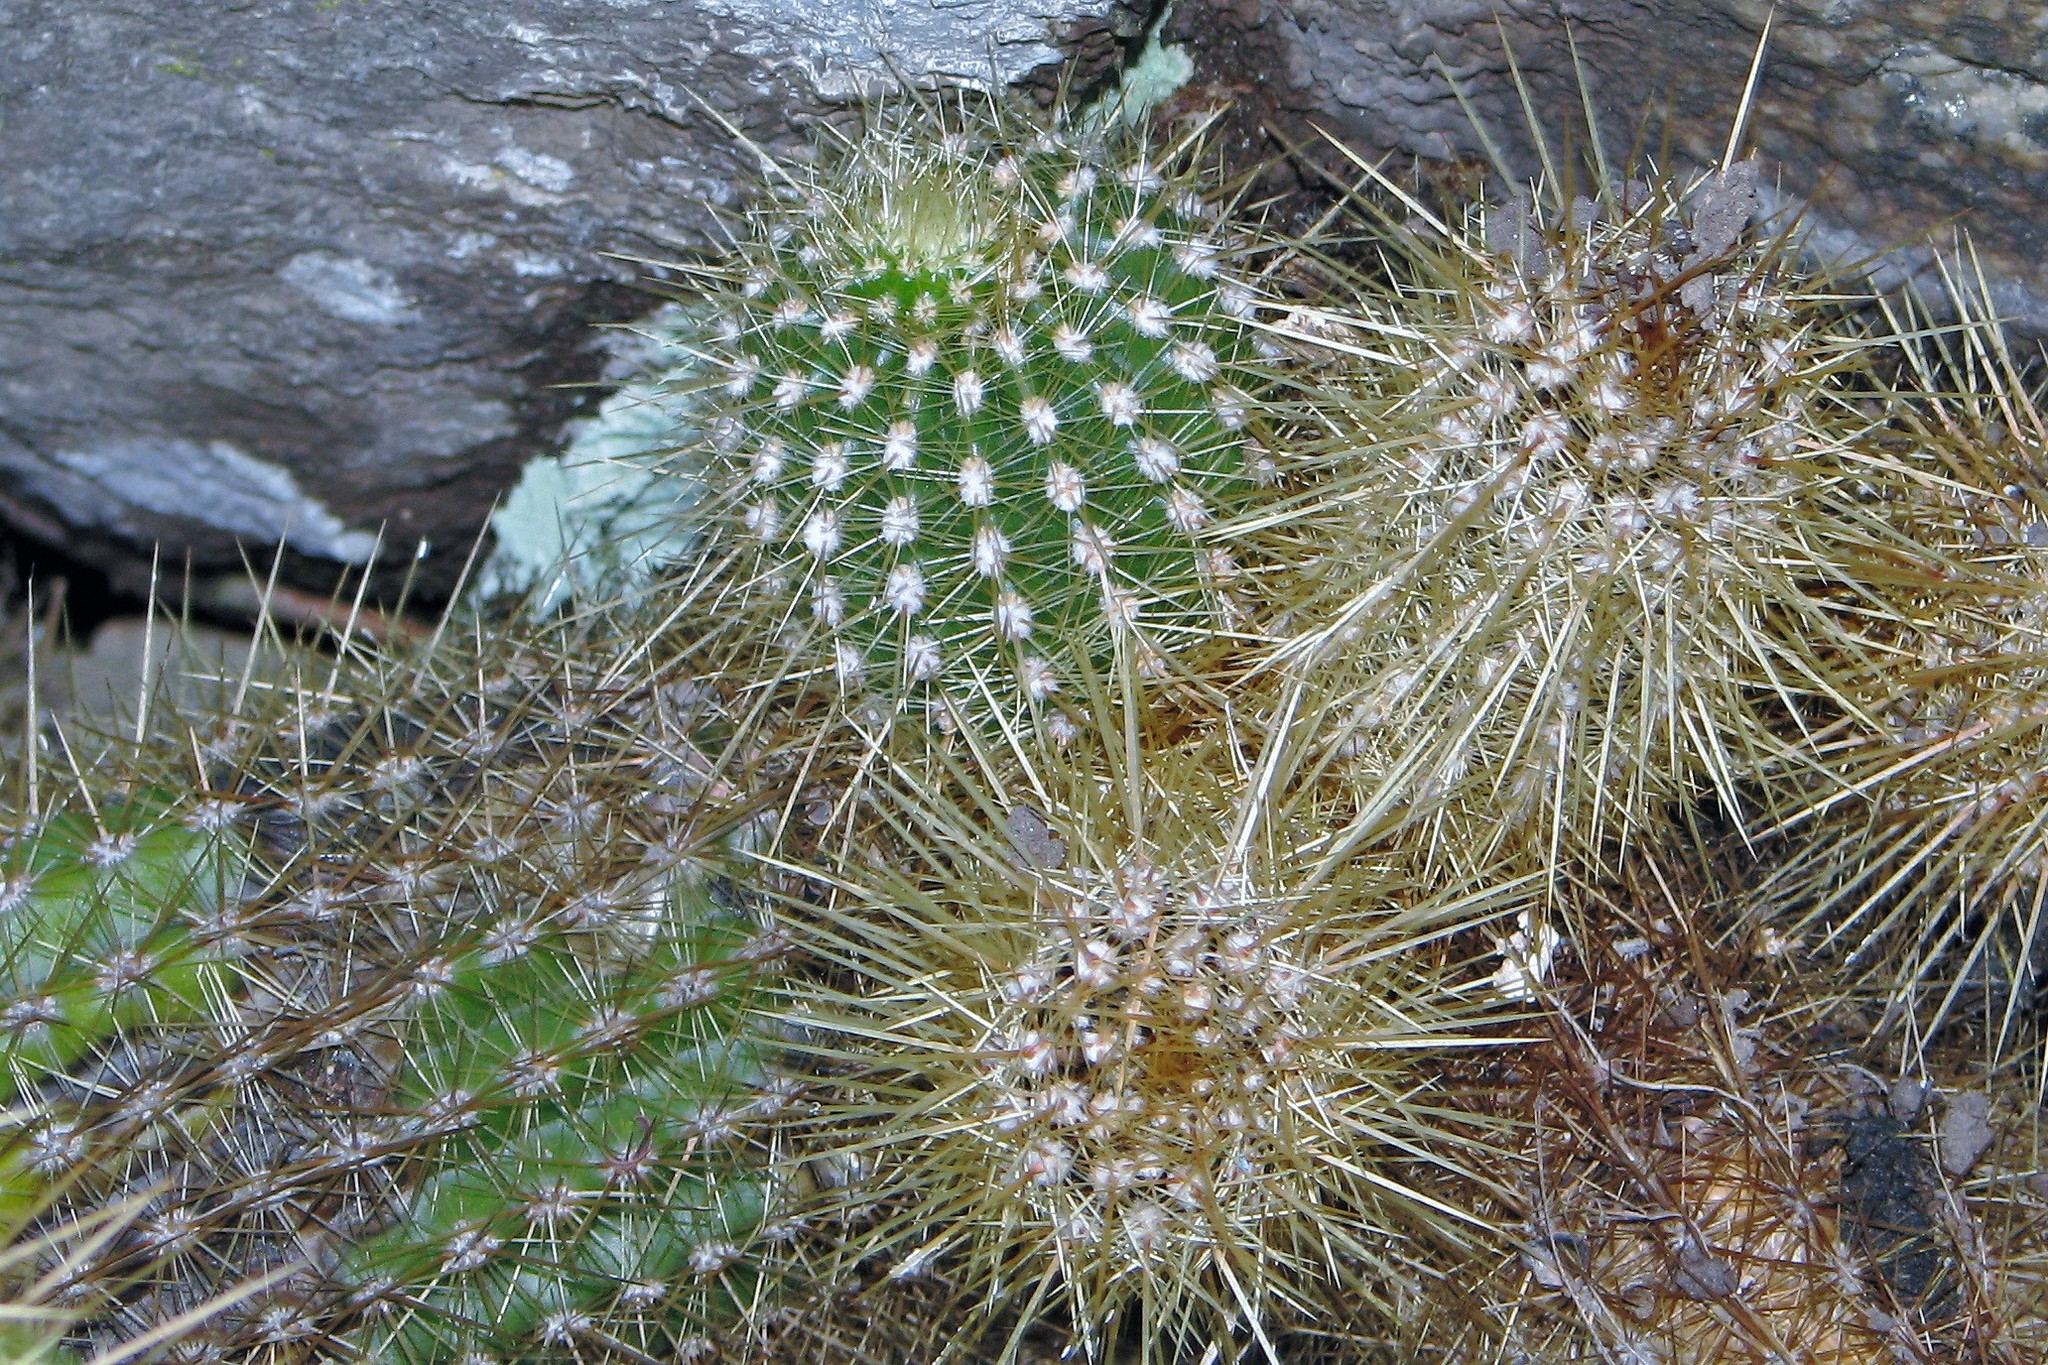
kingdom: Plantae
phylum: Tracheophyta
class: Magnoliopsida
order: Caryophyllales
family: Cactaceae
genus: Soehrensia
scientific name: Soehrensia huascha
